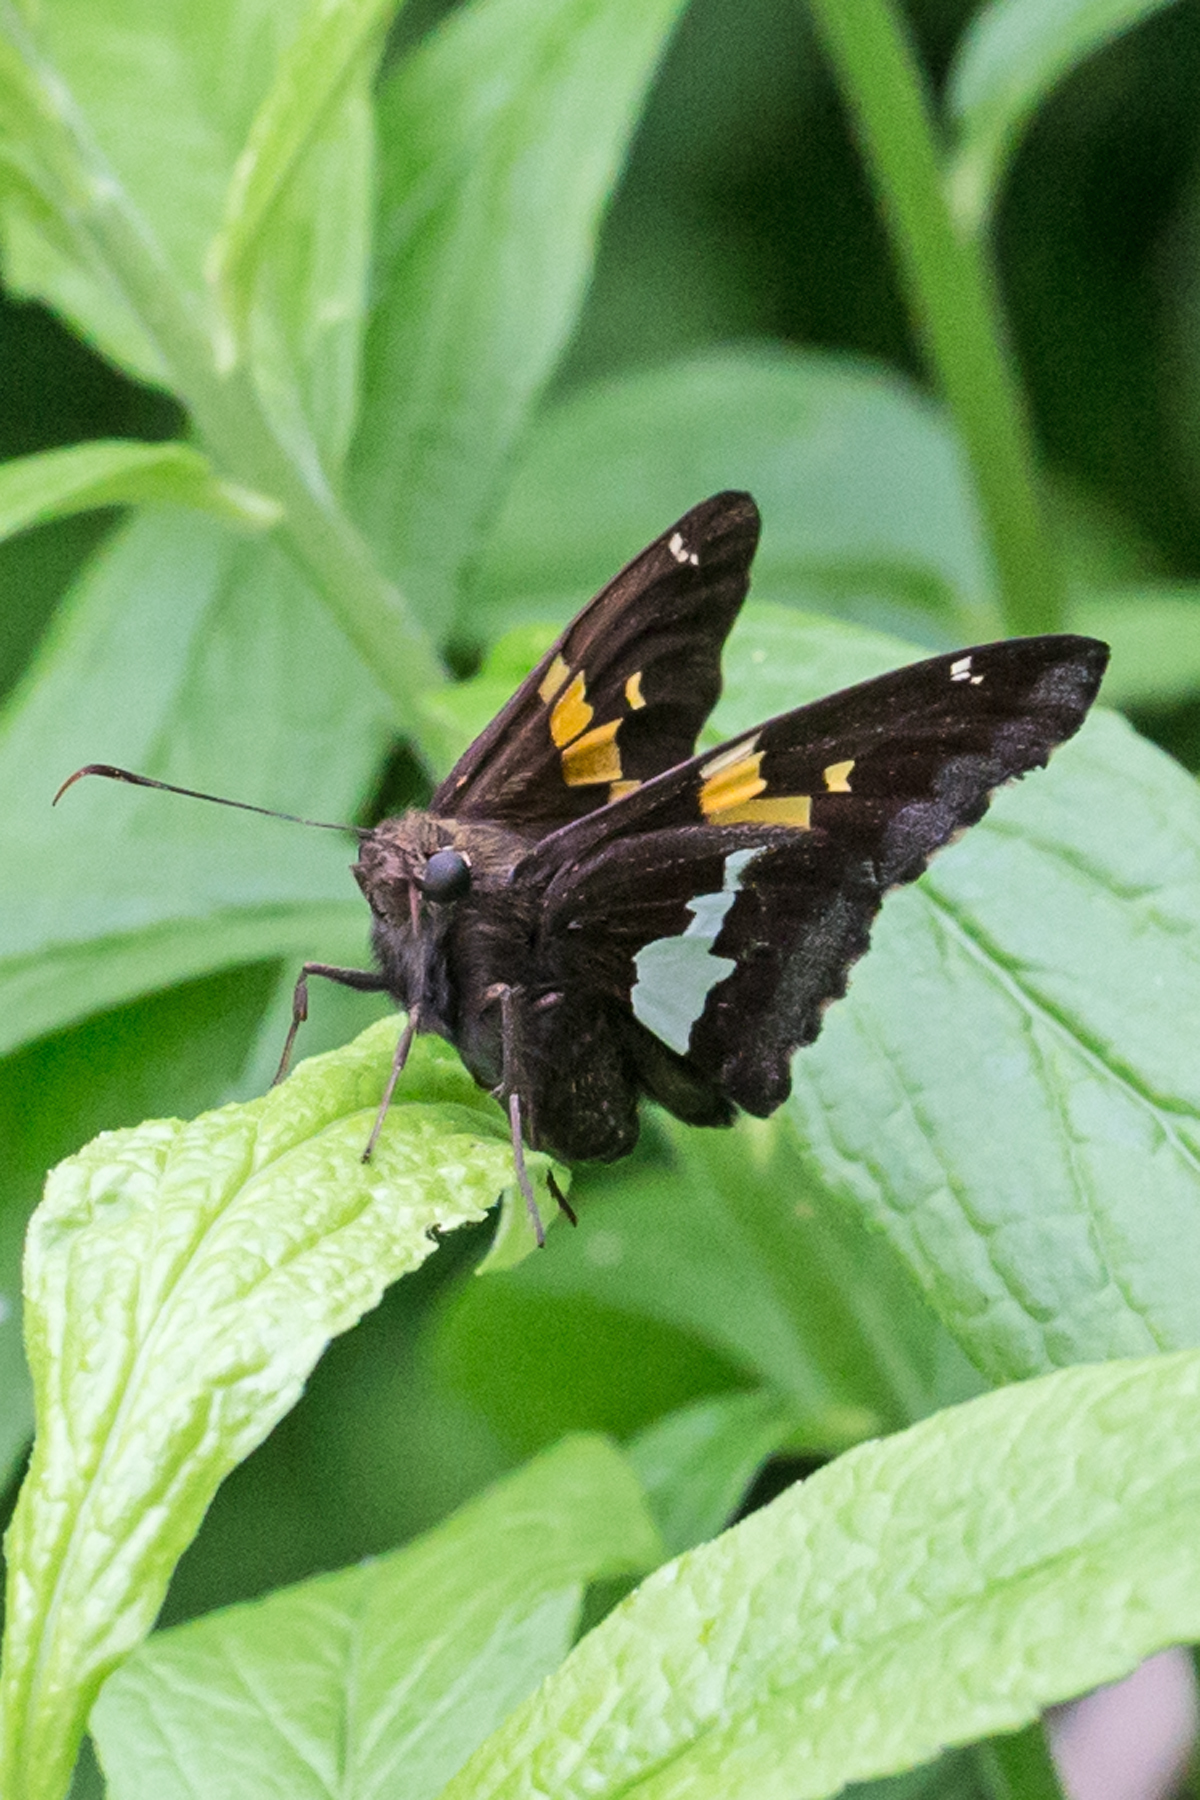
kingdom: Animalia
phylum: Arthropoda
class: Insecta
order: Lepidoptera
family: Hesperiidae
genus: Epargyreus
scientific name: Epargyreus clarus
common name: Silver-spotted skipper
